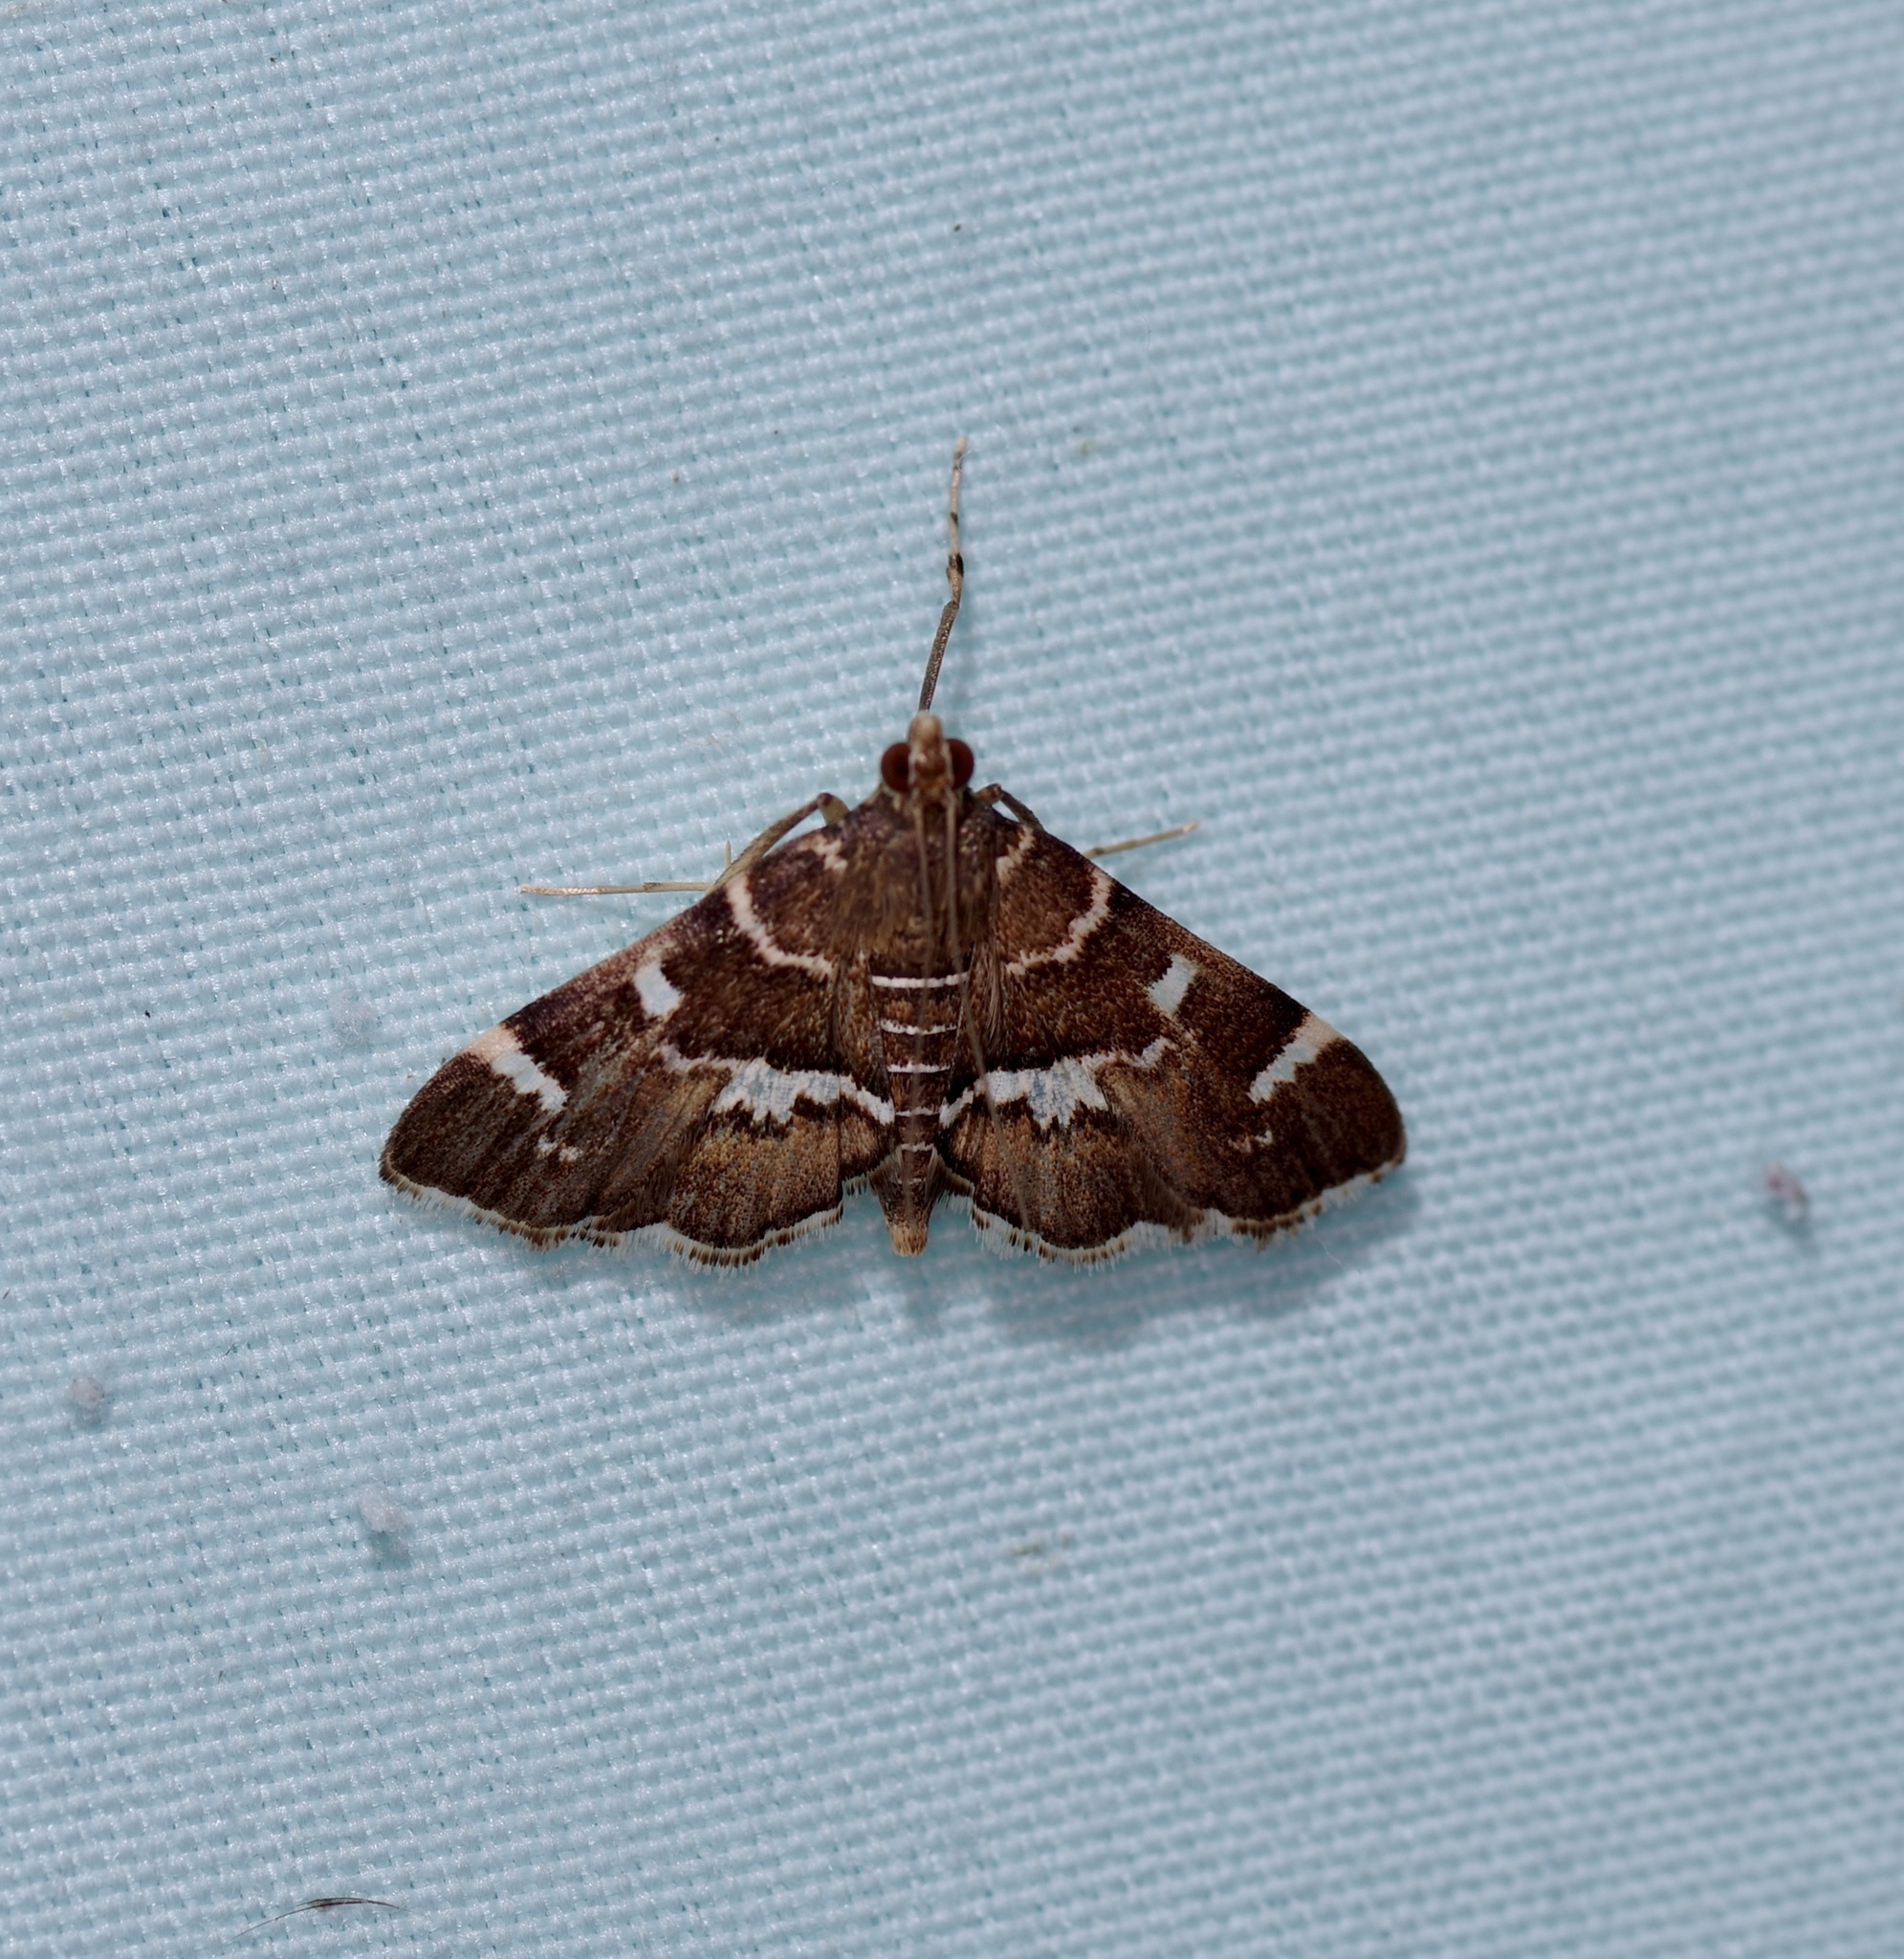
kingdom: Animalia
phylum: Arthropoda
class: Insecta
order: Lepidoptera
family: Crambidae
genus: Hymenia
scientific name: Hymenia perspectalis
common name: Spotted beet webworm
